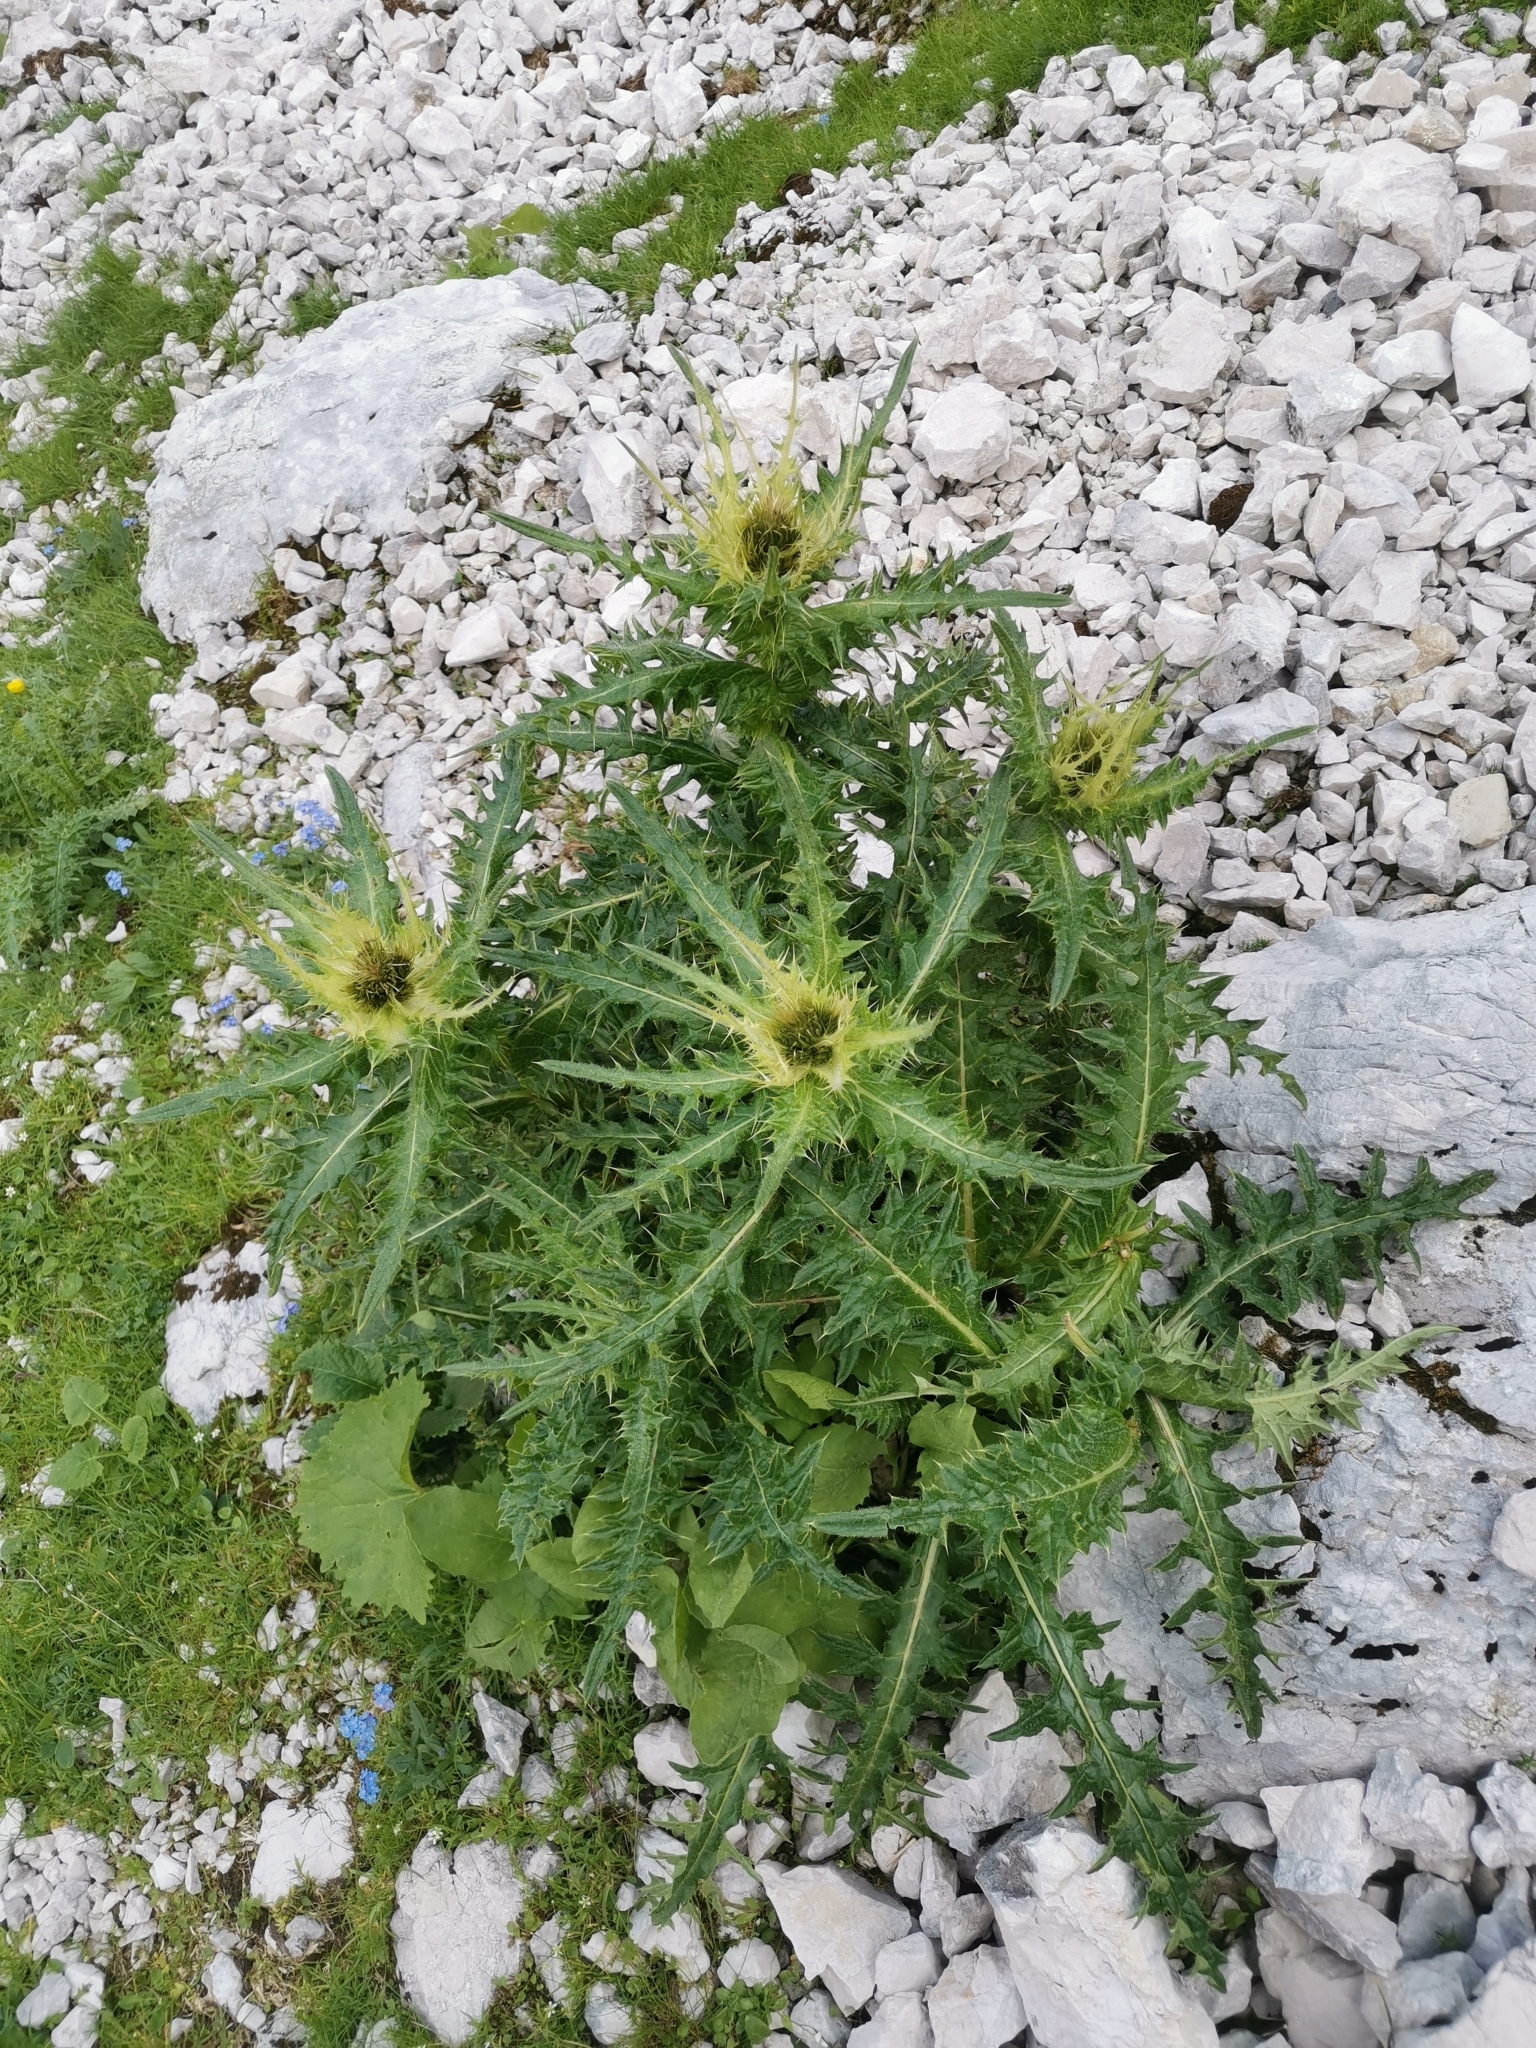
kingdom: Plantae
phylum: Tracheophyta
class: Magnoliopsida
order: Asterales
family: Asteraceae
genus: Cirsium
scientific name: Cirsium spinosissimum
